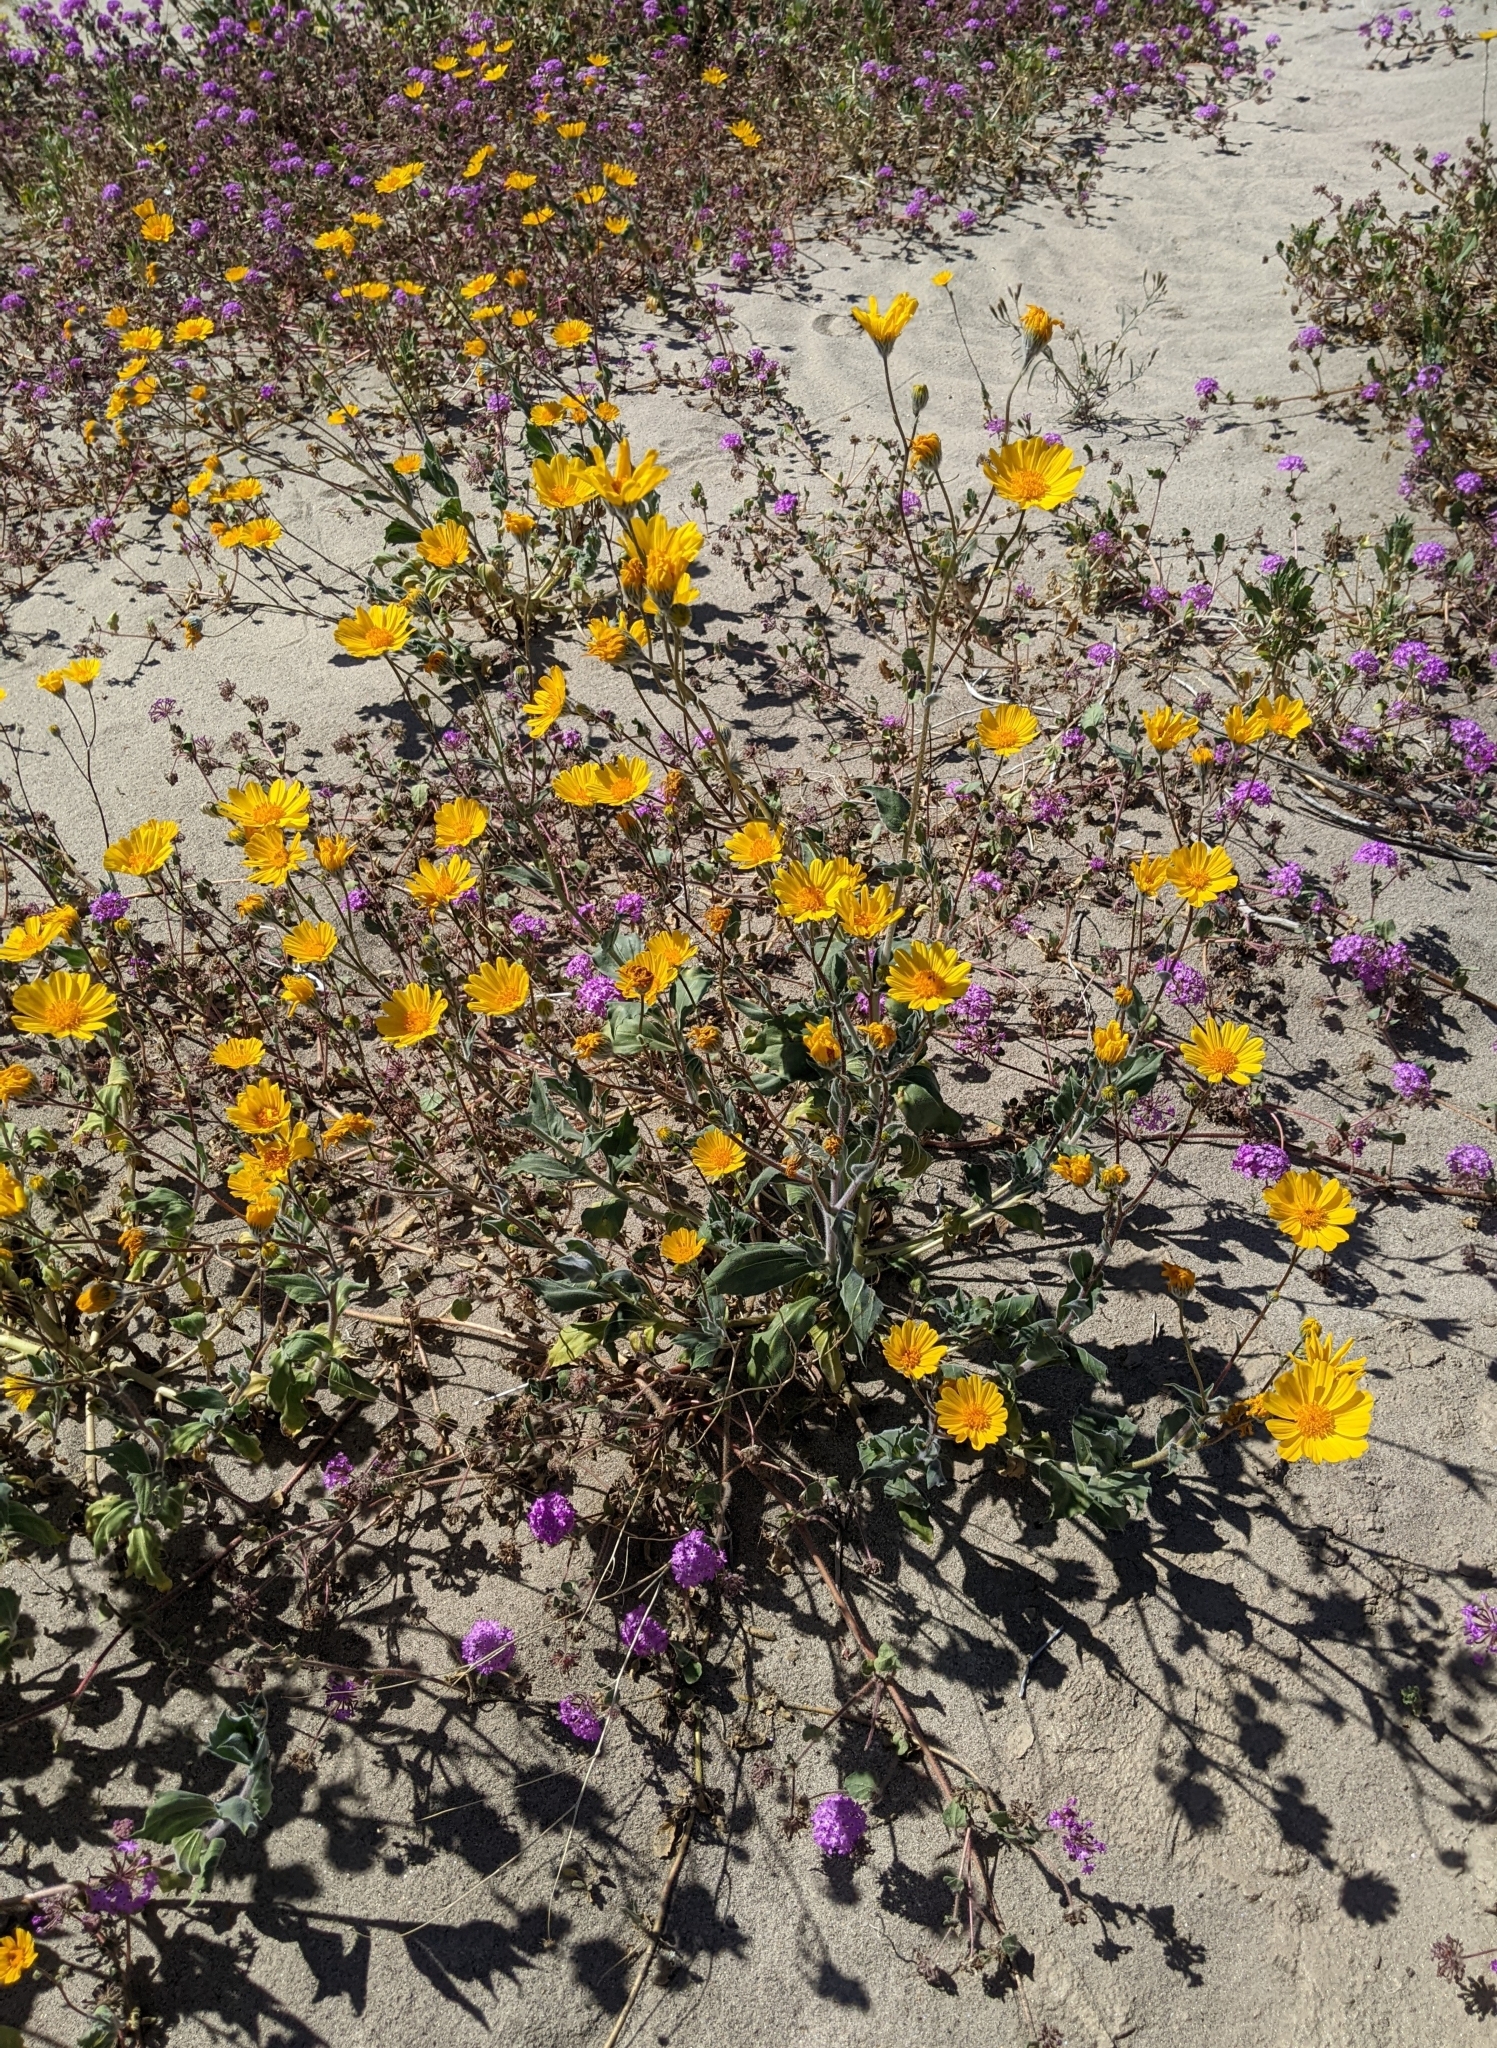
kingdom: Plantae
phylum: Tracheophyta
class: Magnoliopsida
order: Asterales
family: Asteraceae
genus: Geraea
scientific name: Geraea canescens
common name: Desert-gold
